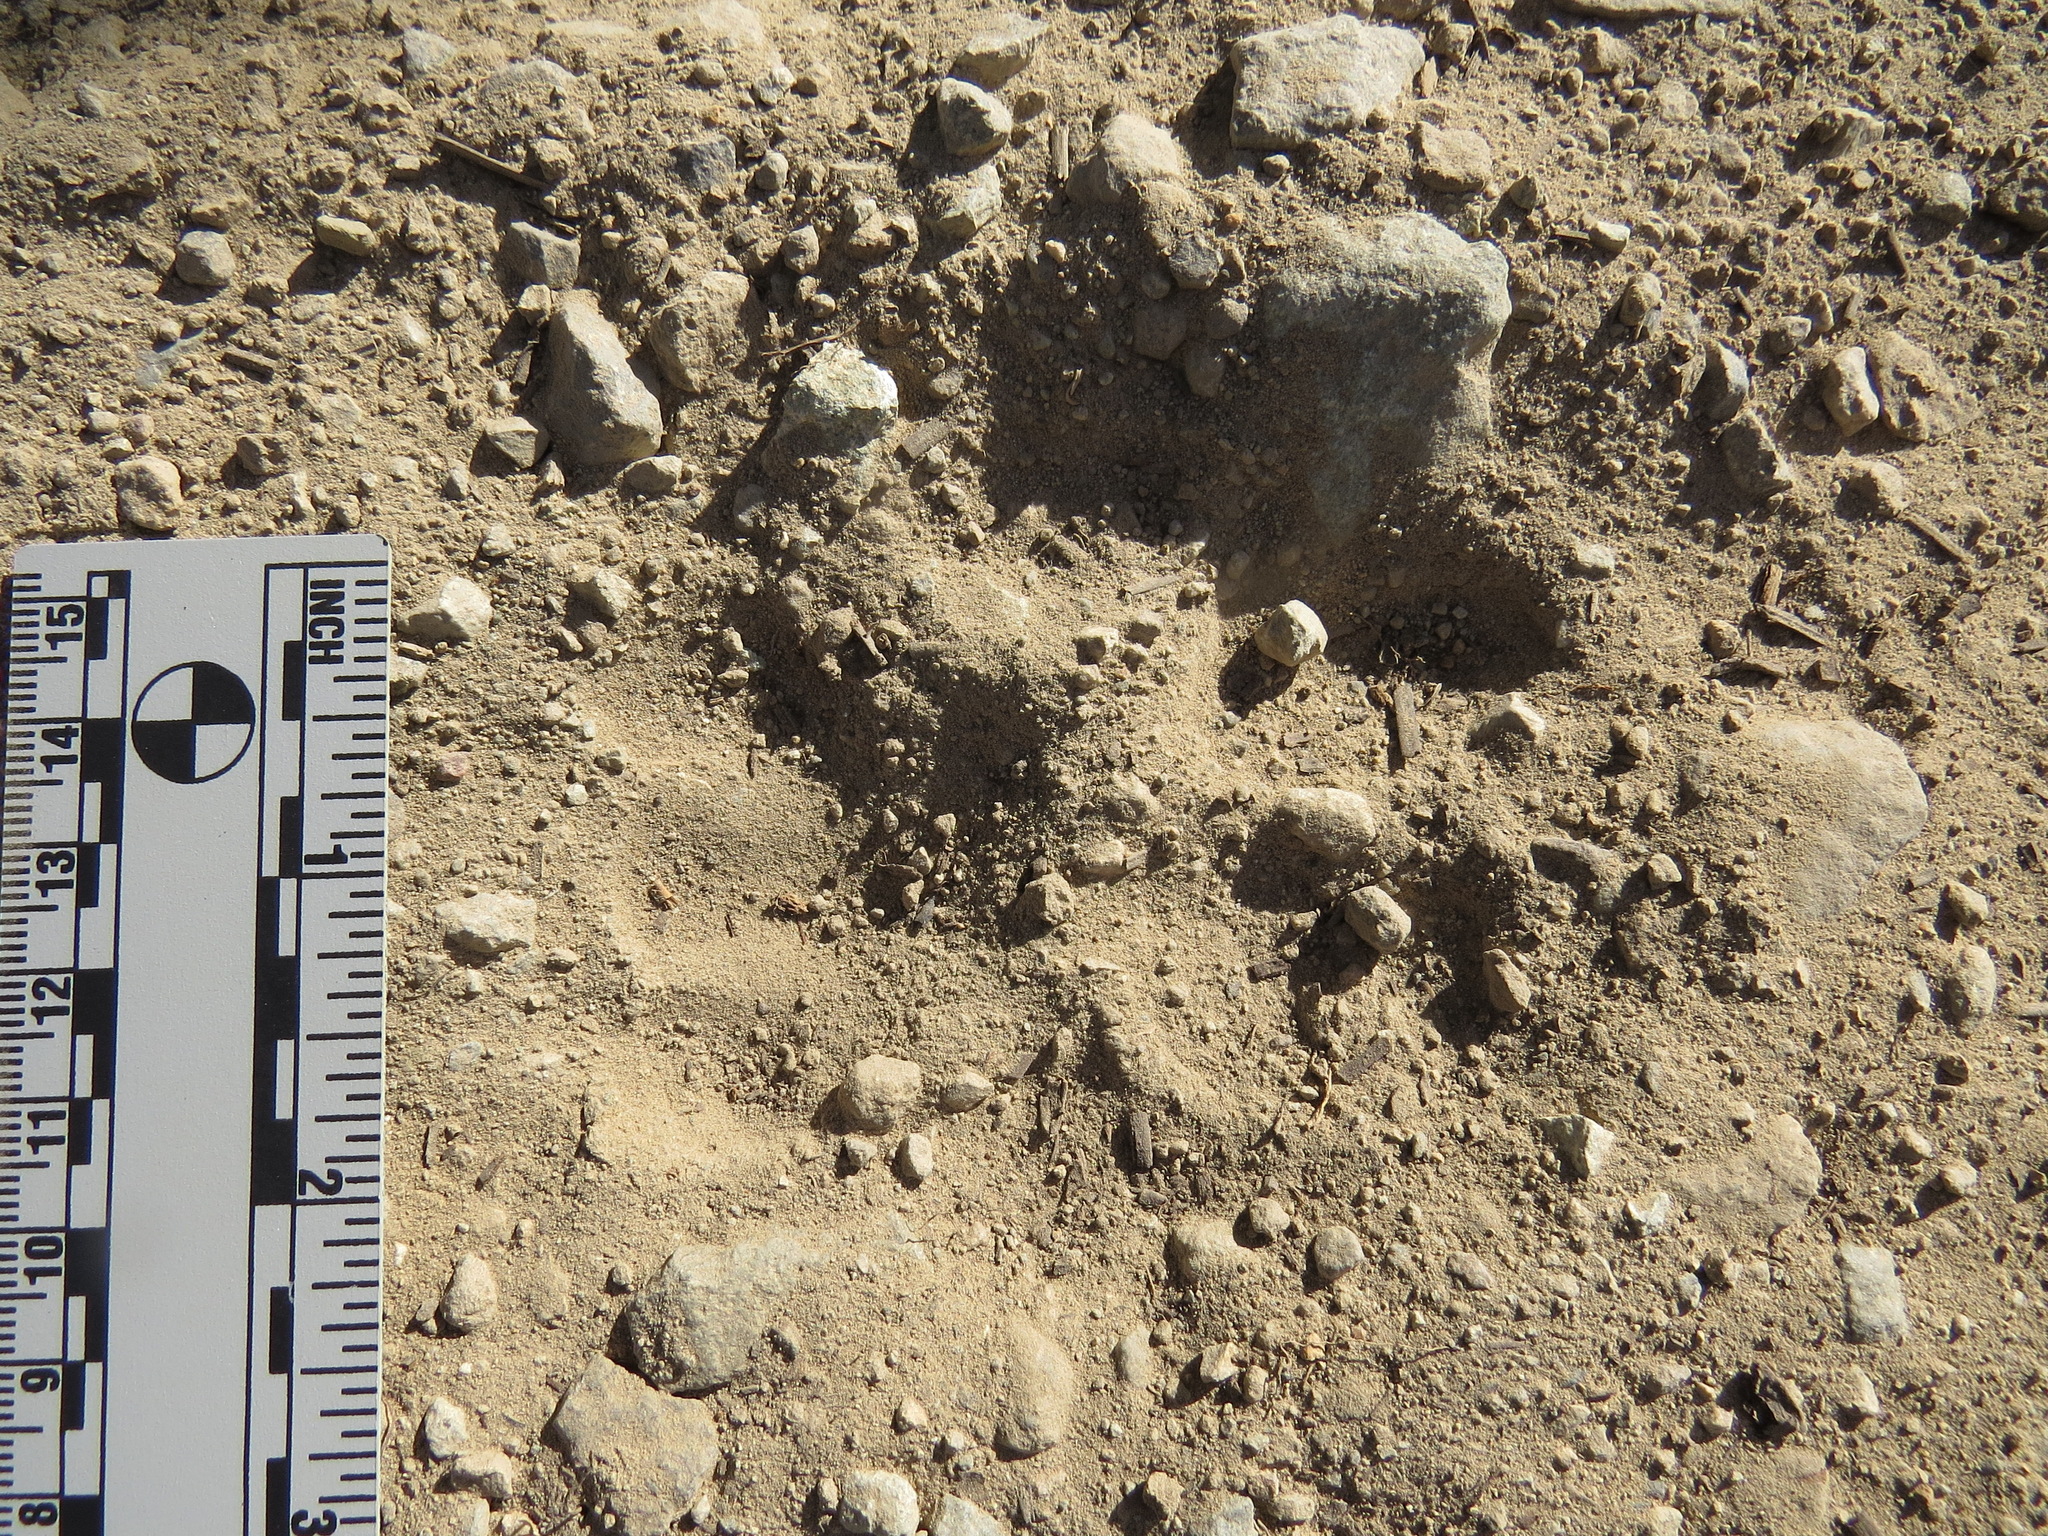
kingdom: Animalia
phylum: Chordata
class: Mammalia
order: Carnivora
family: Felidae
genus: Puma
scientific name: Puma concolor
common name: Puma
